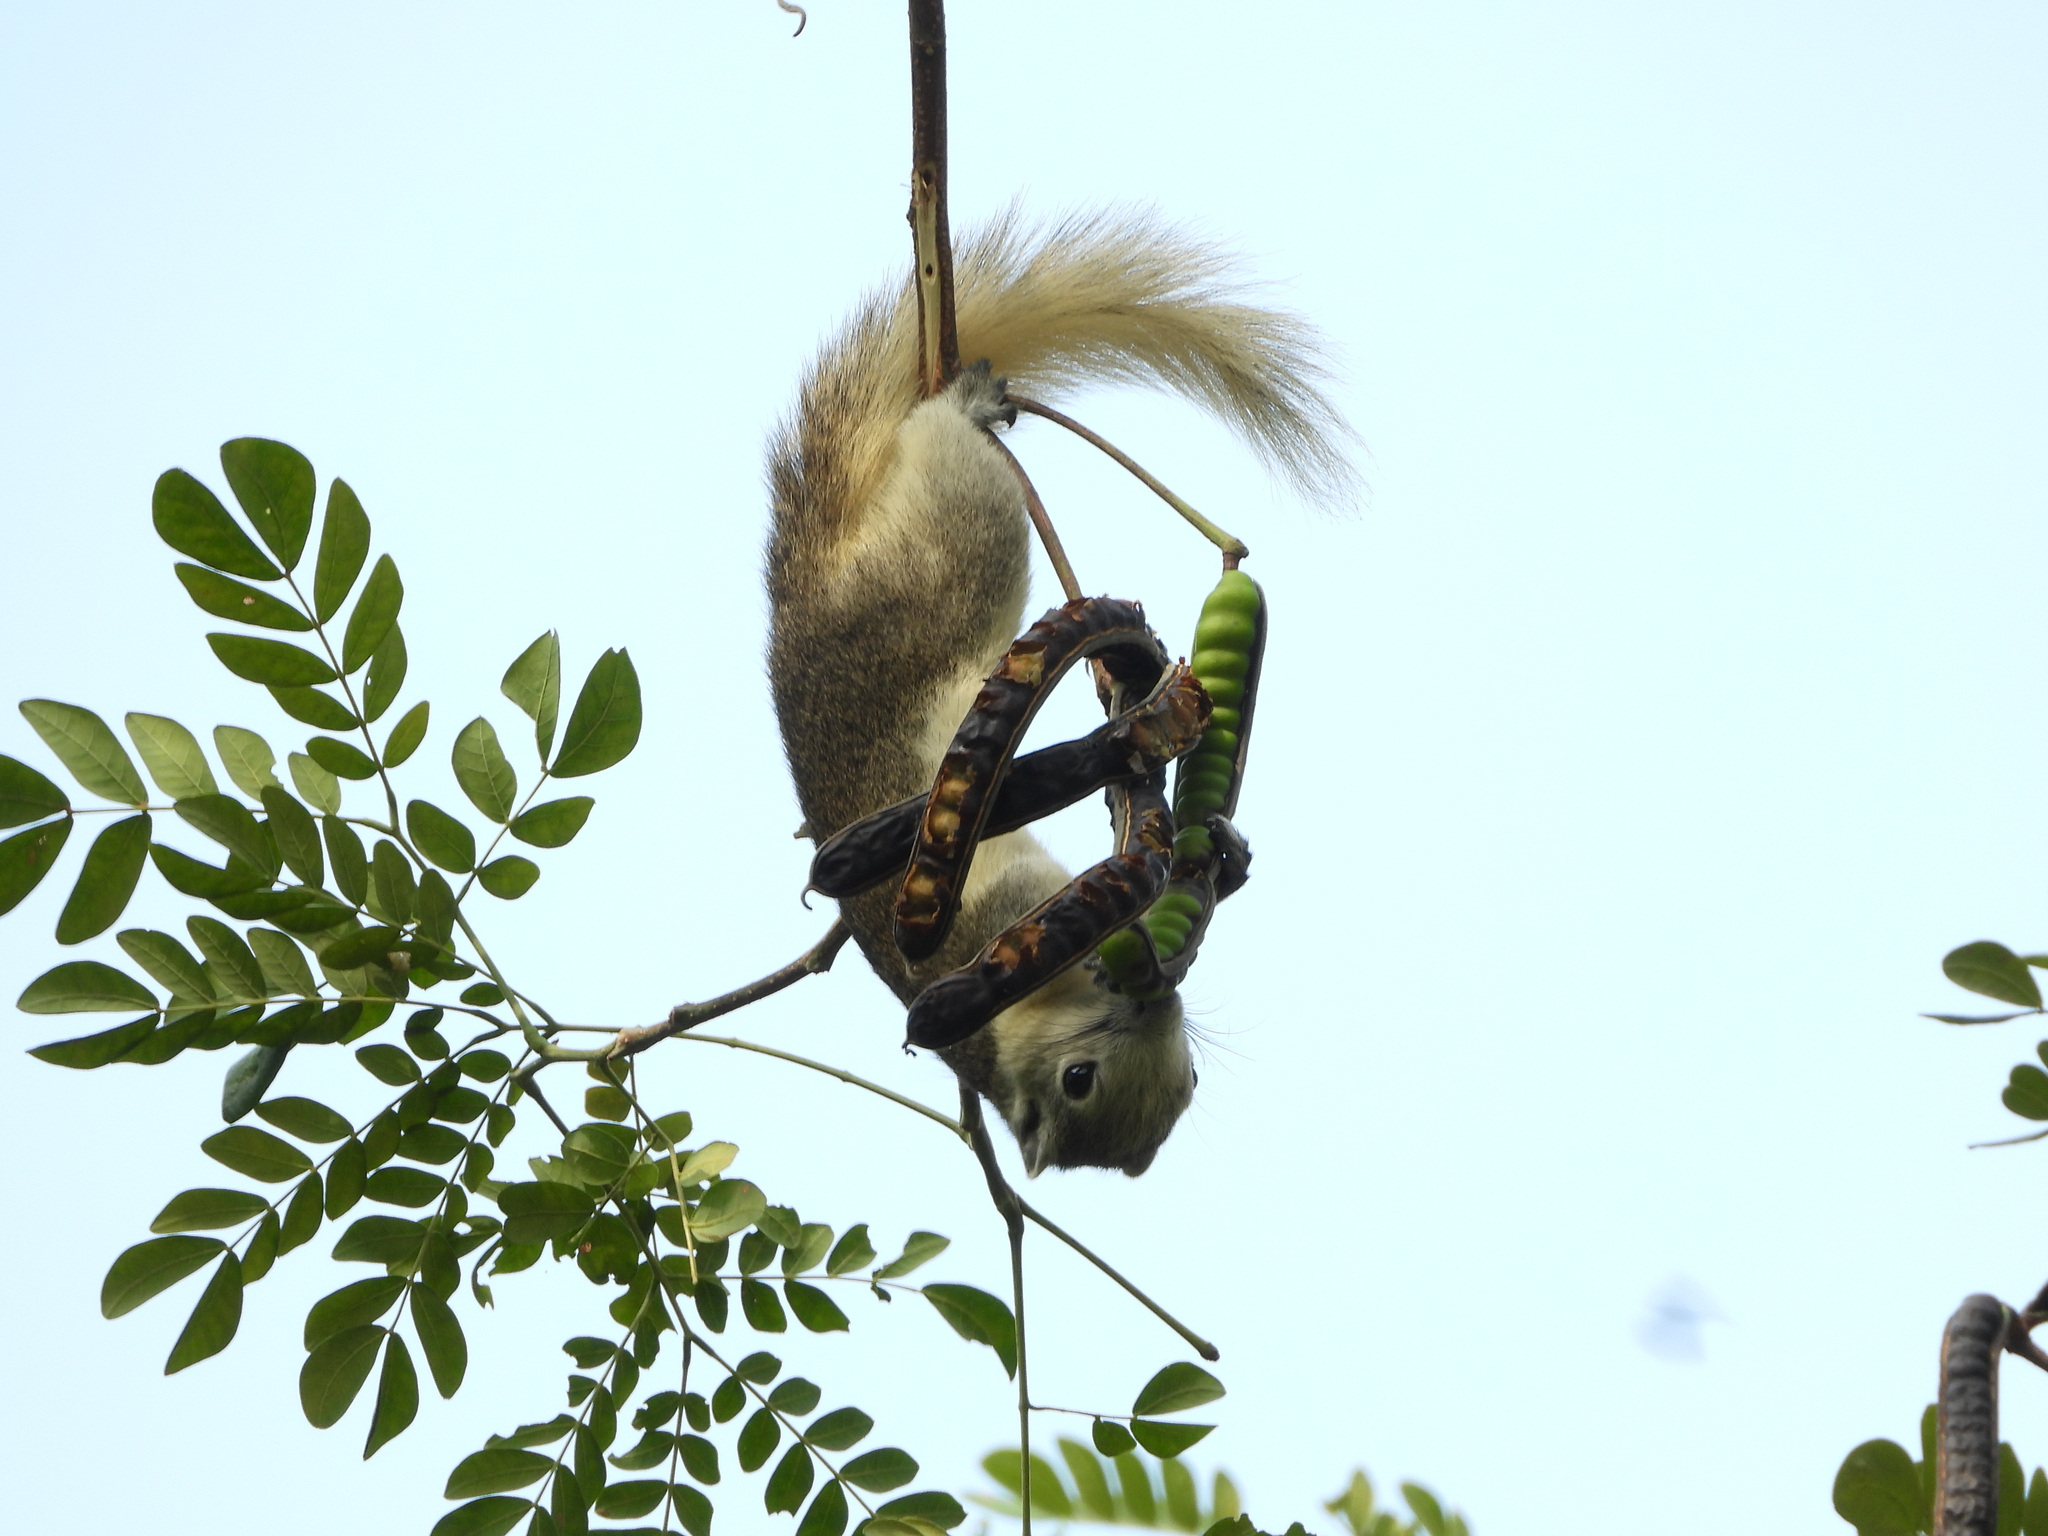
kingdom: Animalia
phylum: Chordata
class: Mammalia
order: Rodentia
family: Sciuridae
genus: Callosciurus
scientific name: Callosciurus finlaysonii
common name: Finlayson's squirrel
